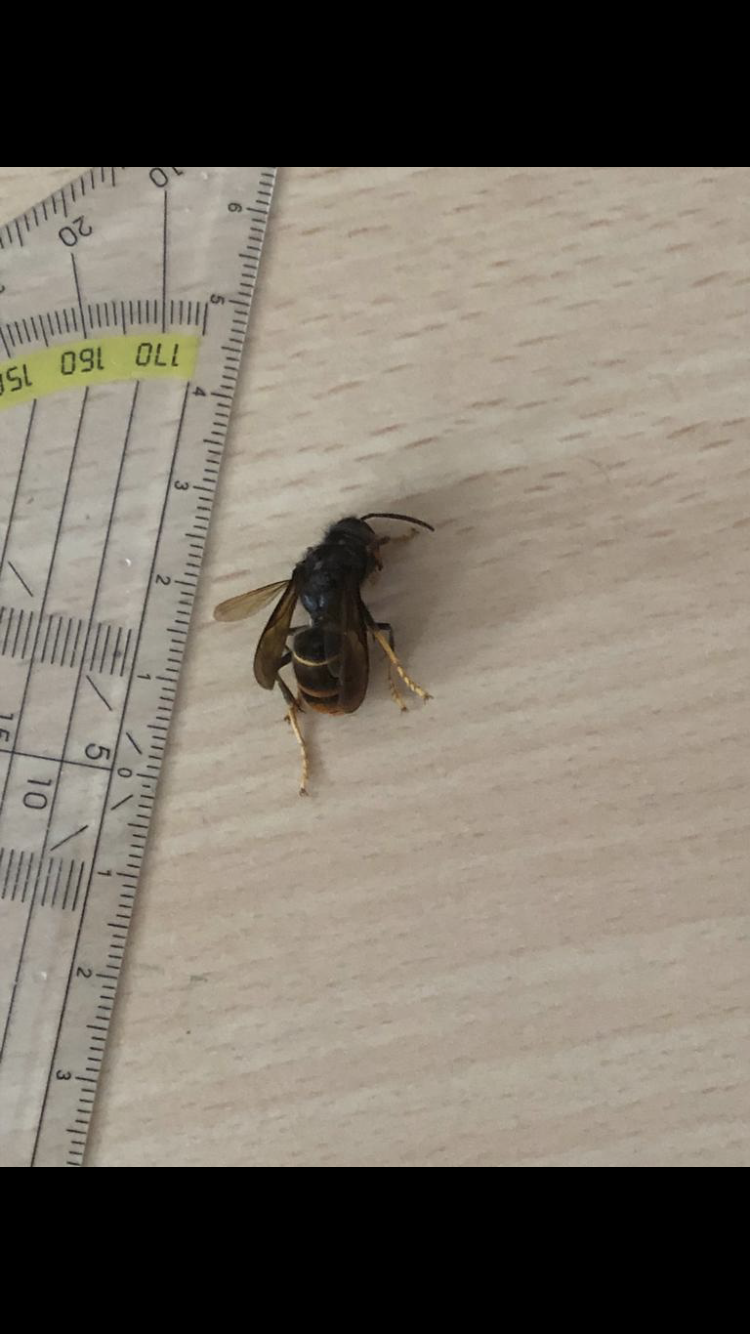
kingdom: Animalia
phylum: Arthropoda
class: Insecta
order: Hymenoptera
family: Vespidae
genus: Vespa
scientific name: Vespa velutina
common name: Asian hornet
